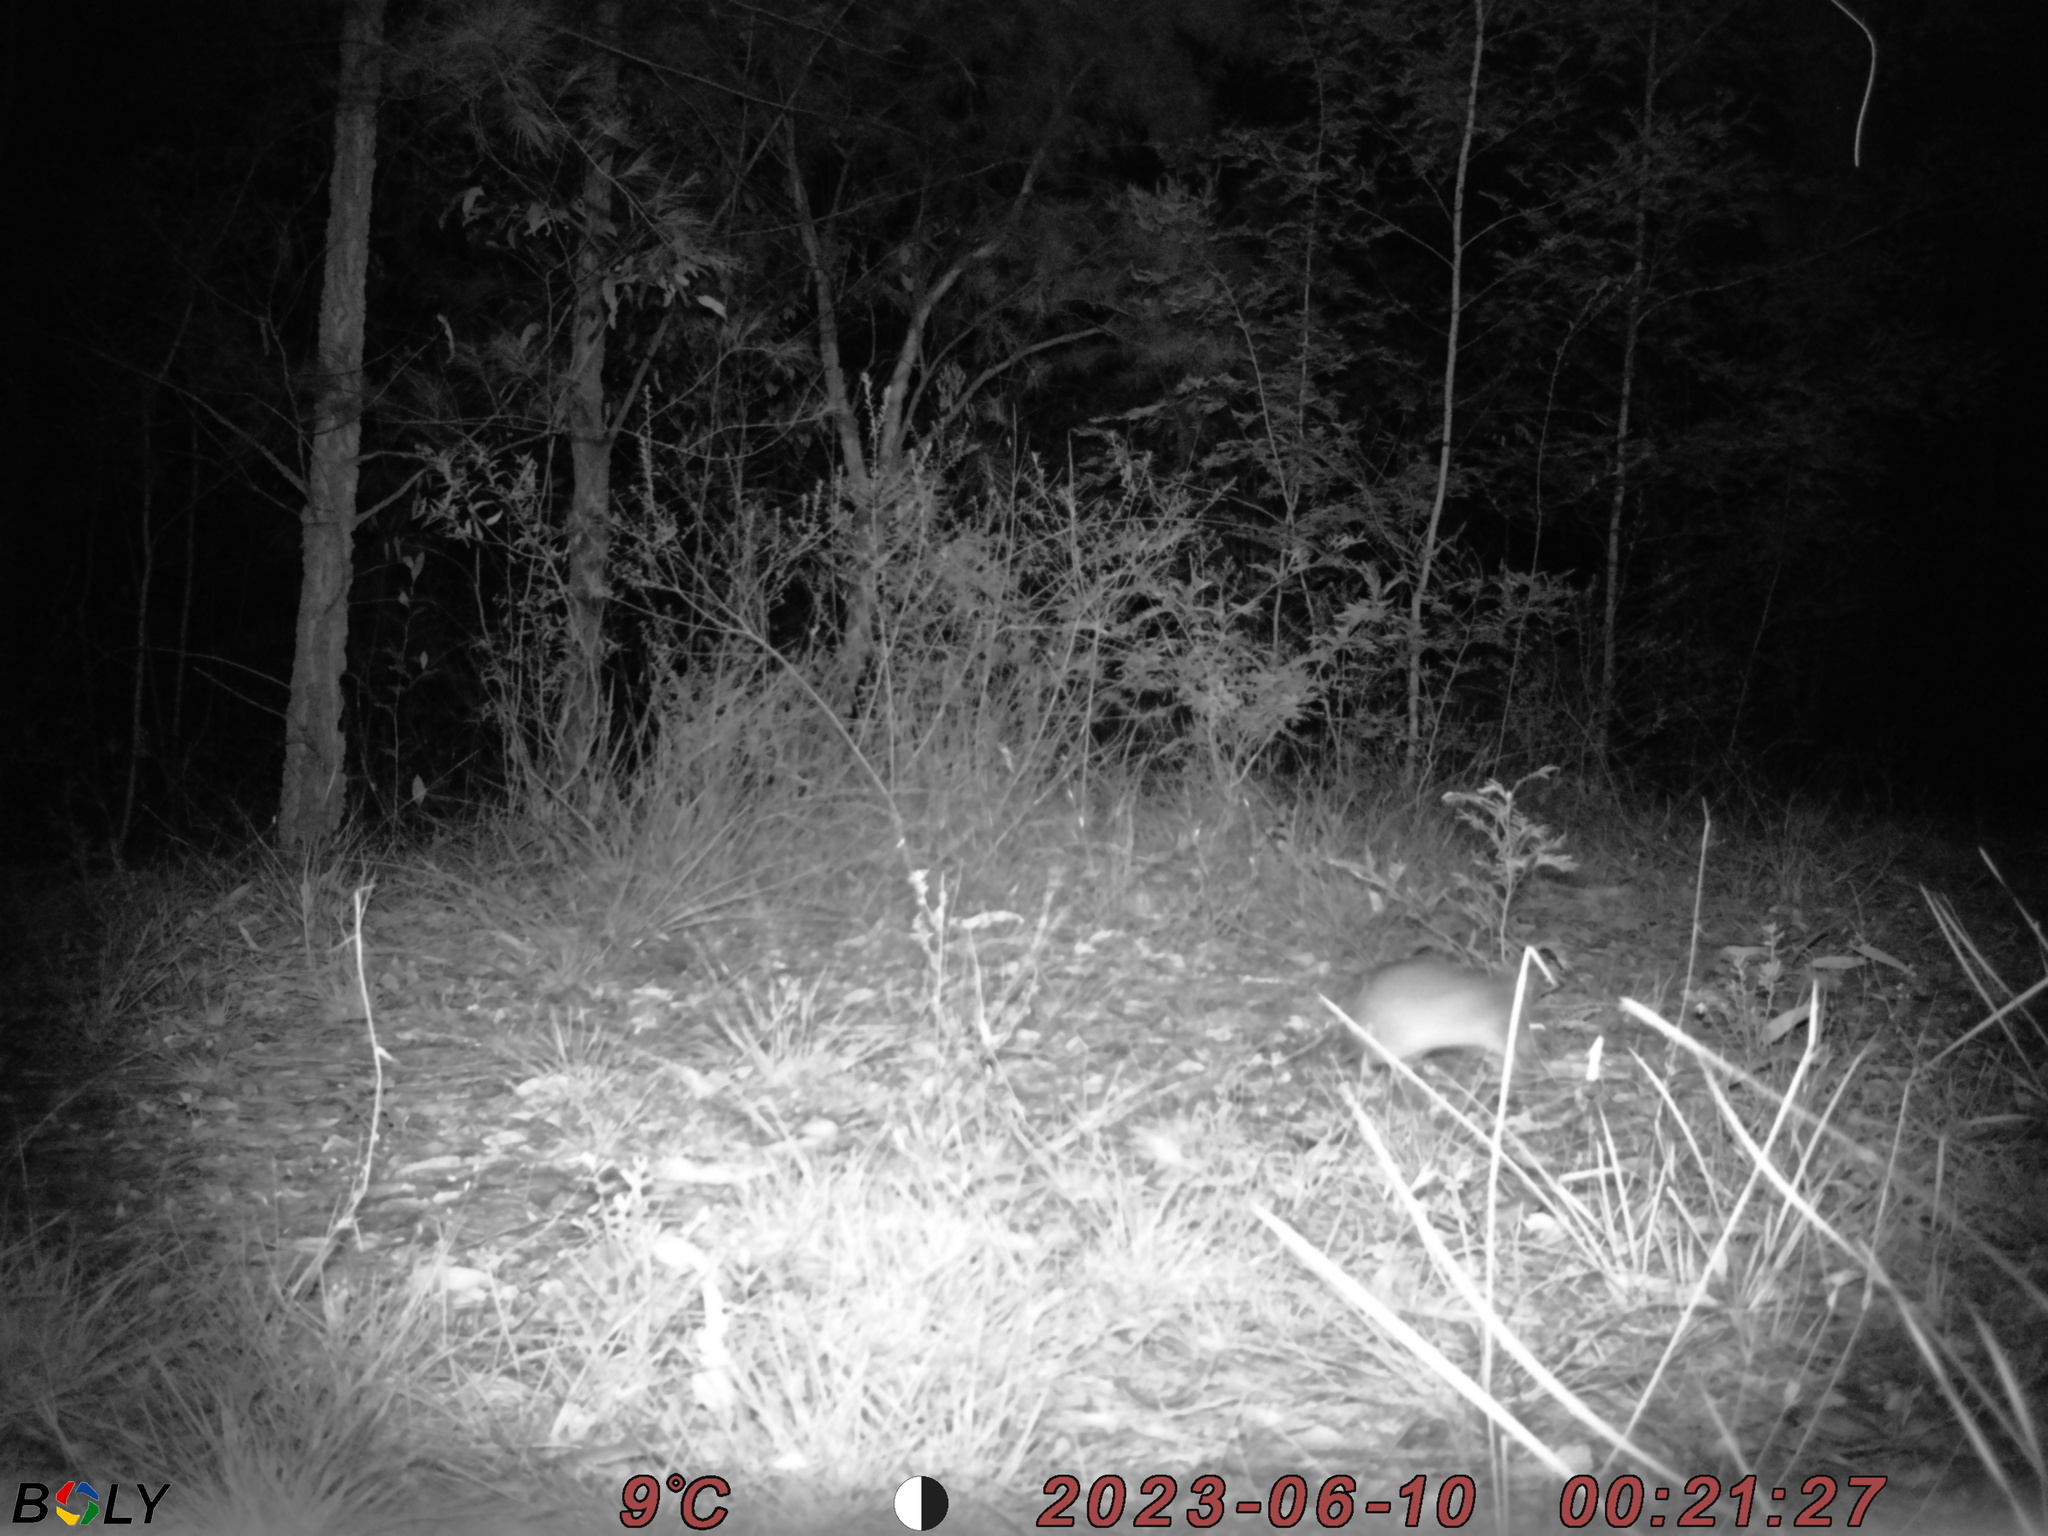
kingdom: Animalia
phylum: Chordata
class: Mammalia
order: Peramelemorphia
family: Peramelidae
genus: Perameles
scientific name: Perameles nasuta
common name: Long-nosed bandicoot
